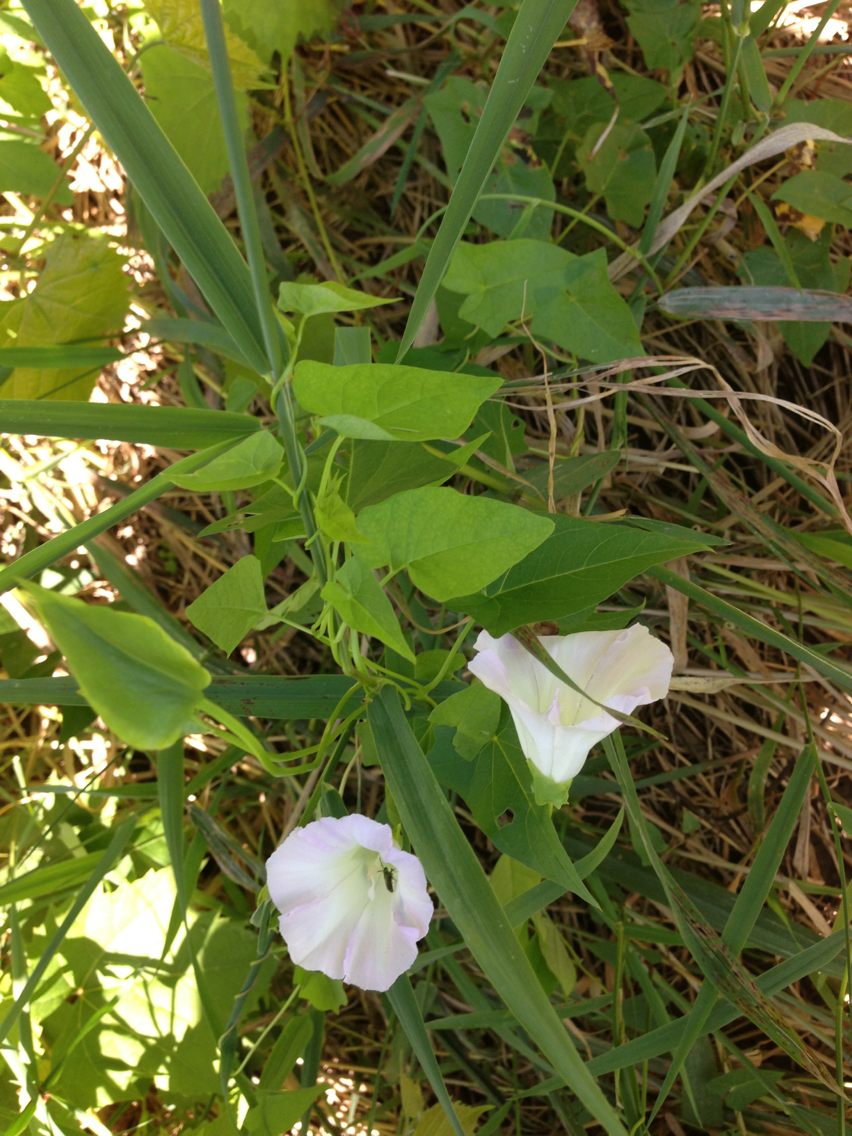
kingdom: Plantae
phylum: Tracheophyta
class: Magnoliopsida
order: Solanales
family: Convolvulaceae
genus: Calystegia
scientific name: Calystegia sepium
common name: Hedge bindweed
